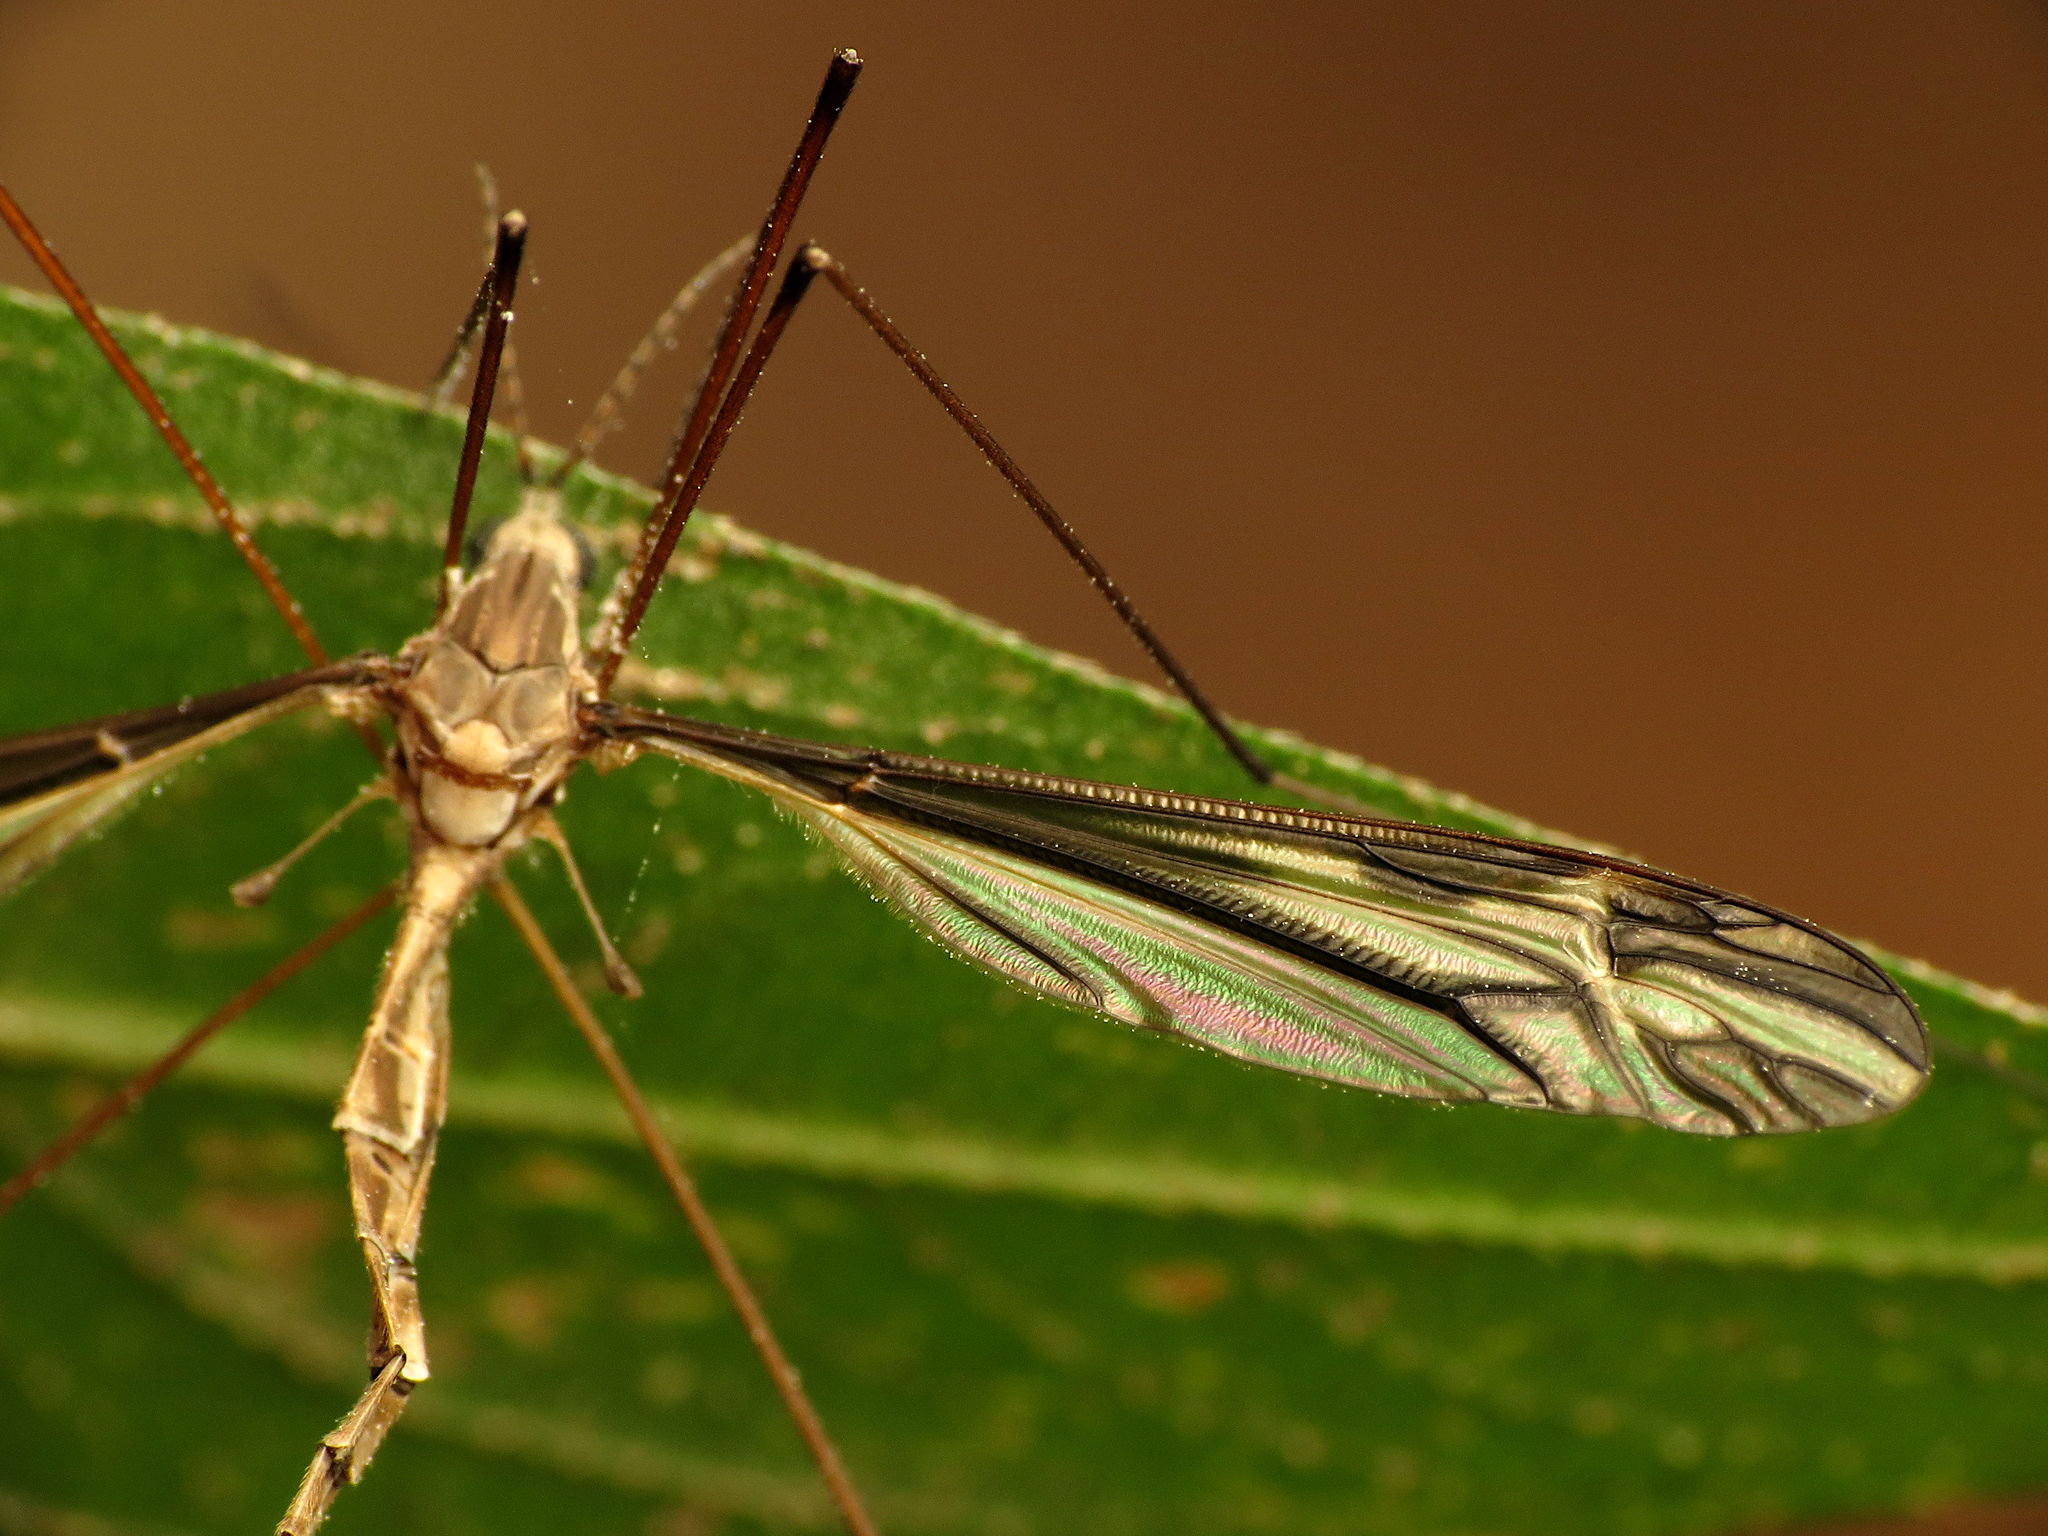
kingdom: Animalia
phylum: Arthropoda
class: Insecta
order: Diptera
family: Tipulidae
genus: Tipula
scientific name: Tipula furca
